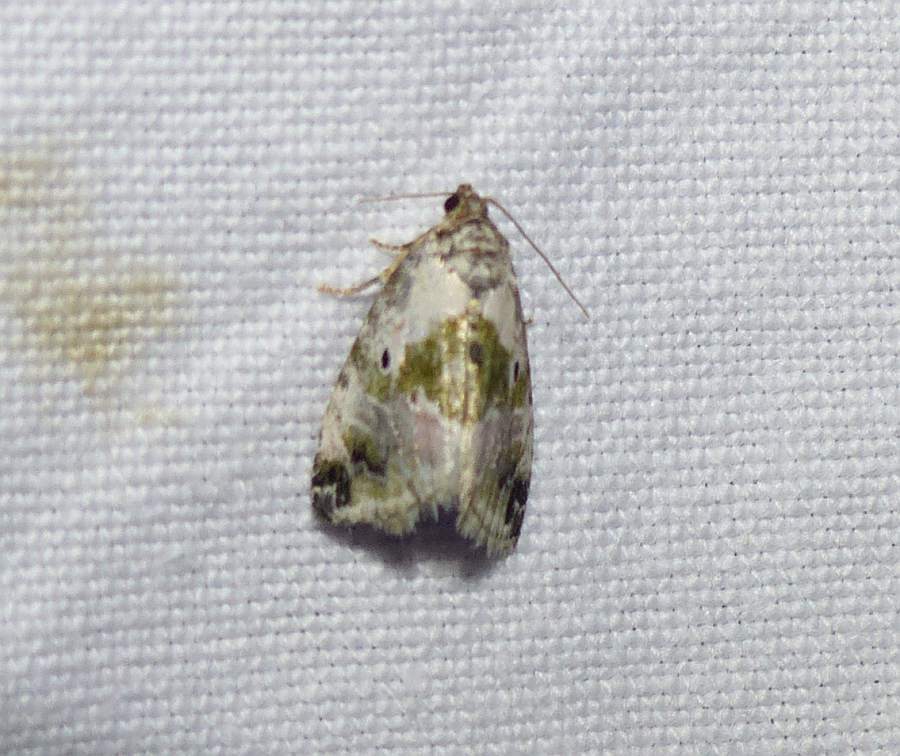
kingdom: Animalia
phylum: Arthropoda
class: Insecta
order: Lepidoptera
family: Noctuidae
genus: Maliattha
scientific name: Maliattha synochitis
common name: Black-dotted glyph
